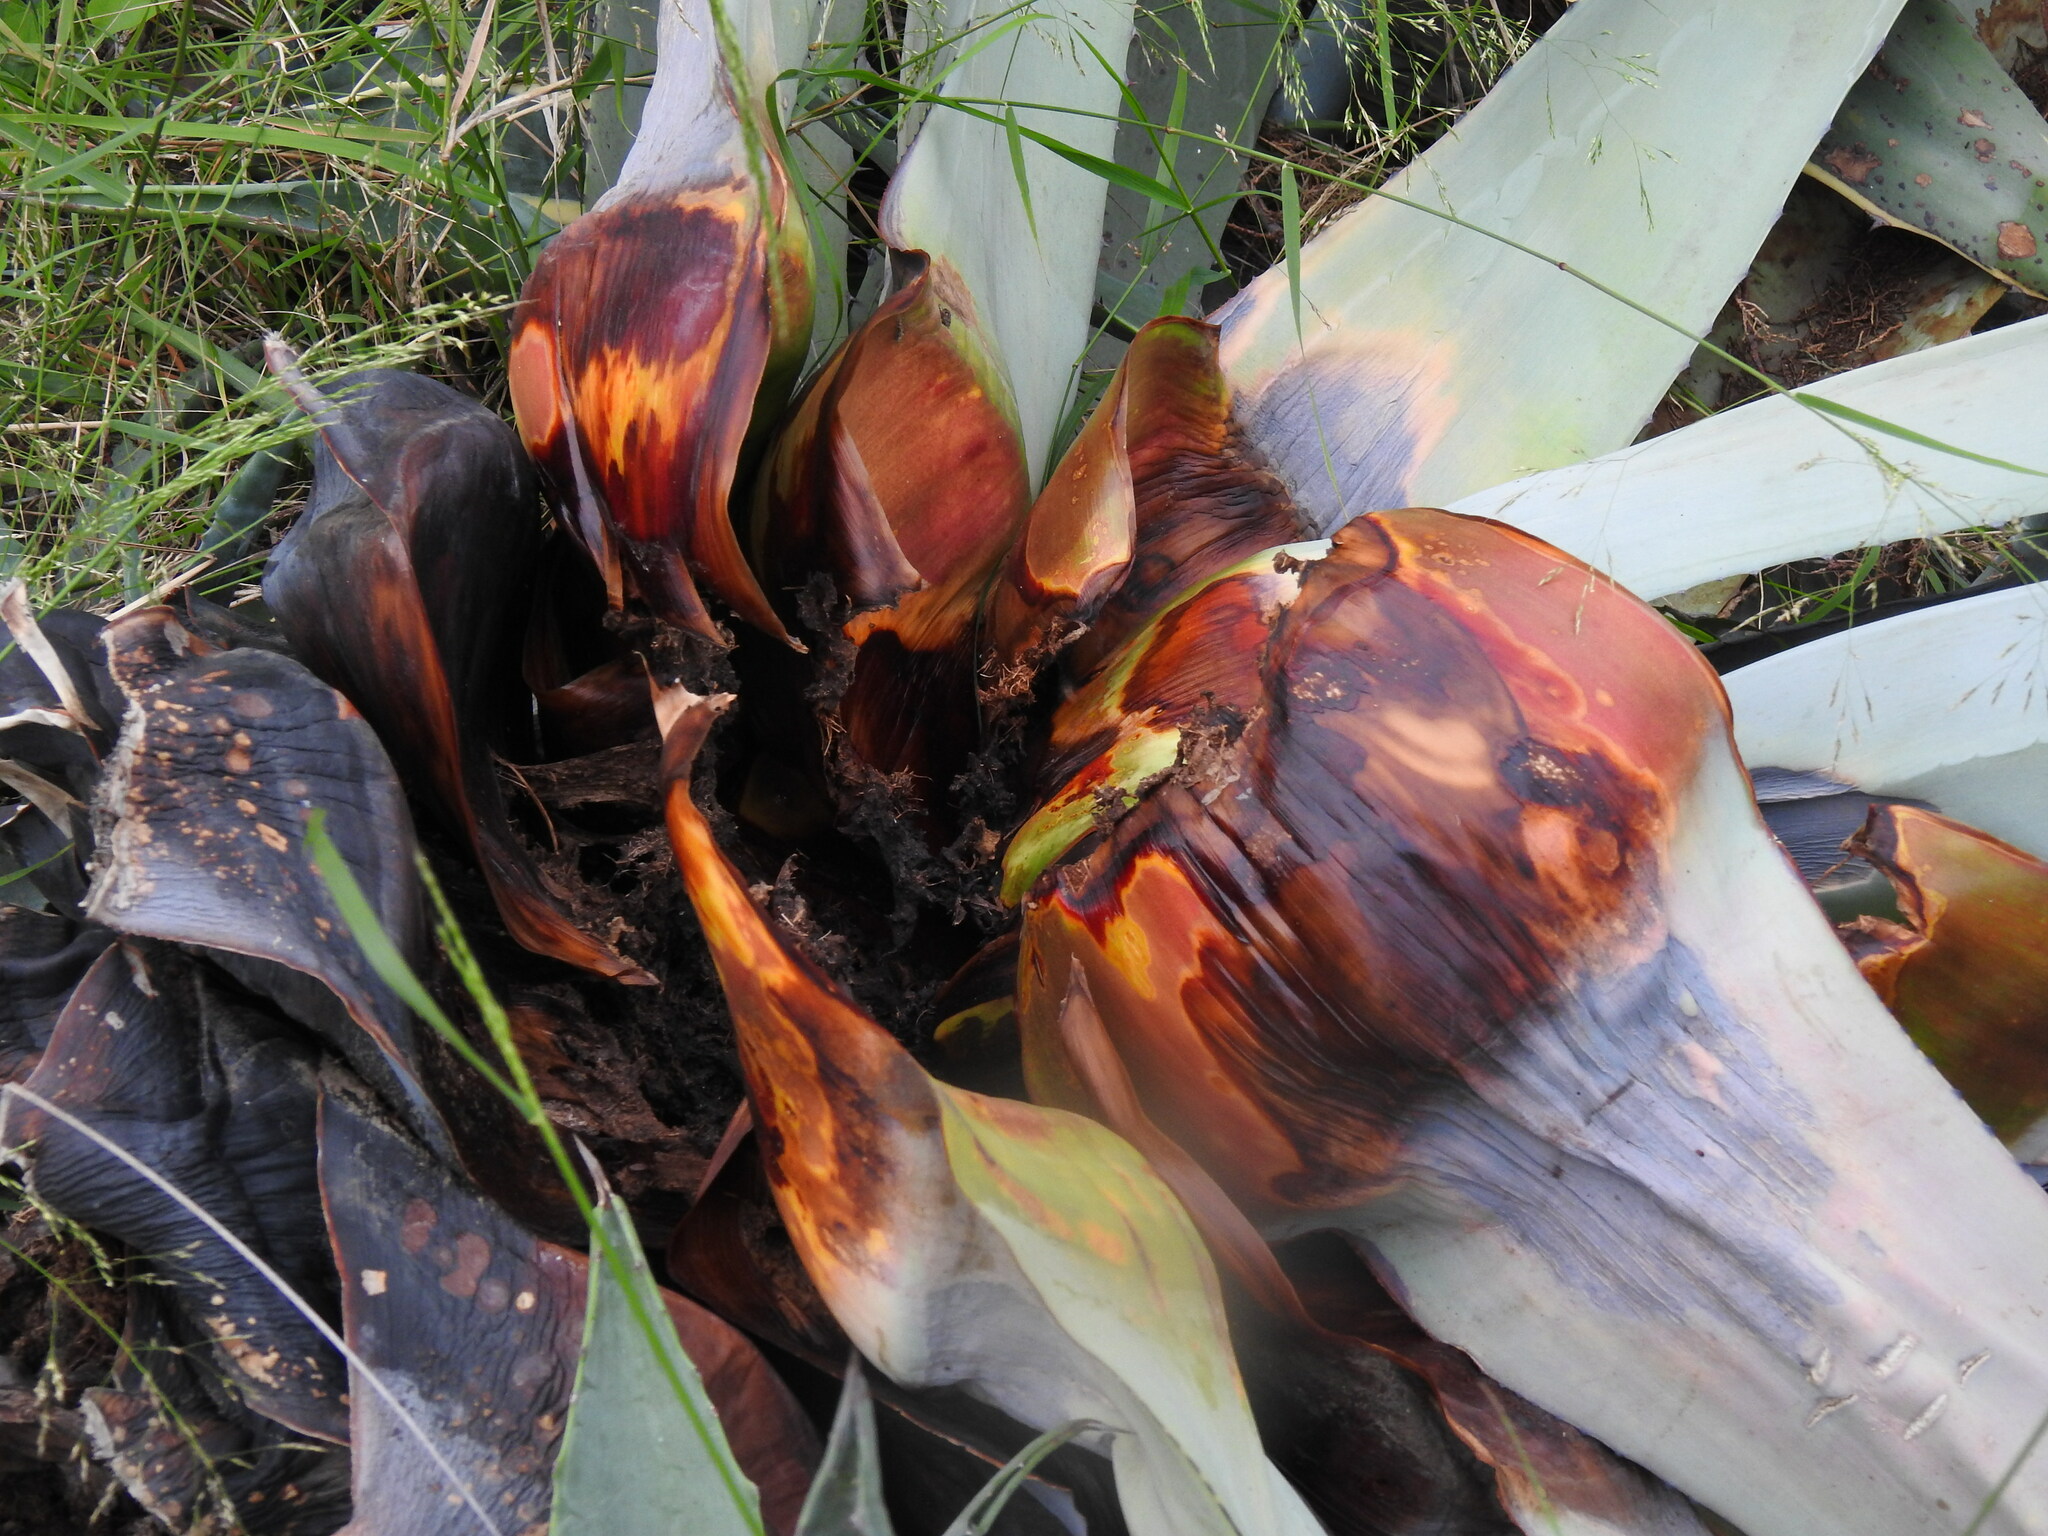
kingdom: Animalia
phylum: Arthropoda
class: Insecta
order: Coleoptera
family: Dryophthoridae
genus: Scyphophorus
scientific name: Scyphophorus acupunctatus
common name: Weevil
